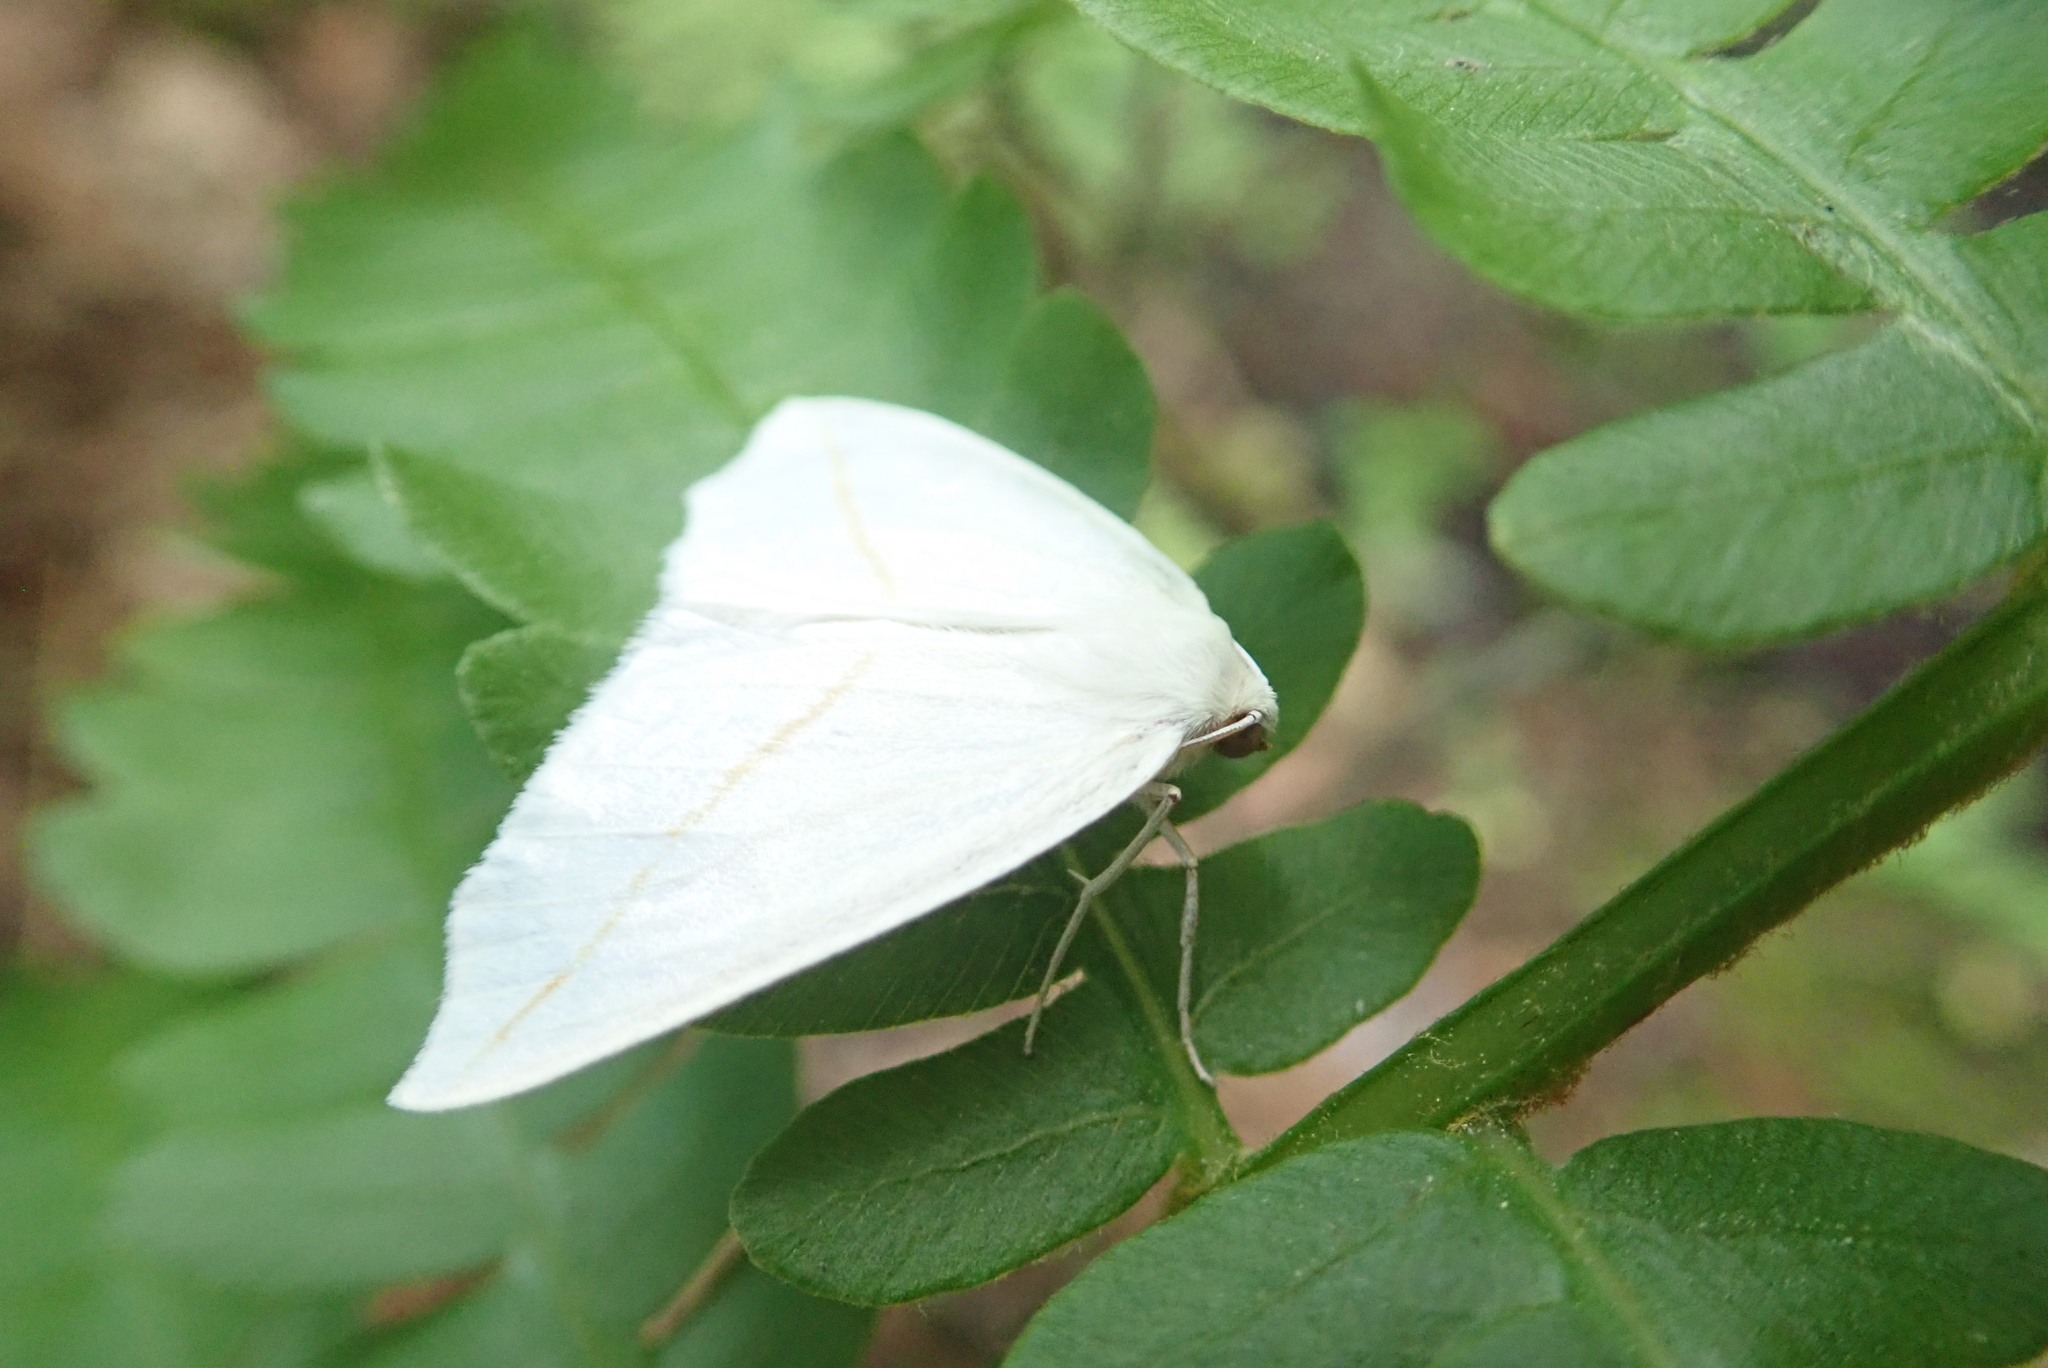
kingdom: Animalia
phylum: Arthropoda
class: Insecta
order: Lepidoptera
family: Geometridae
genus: Tetracis
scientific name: Tetracis cachexiata
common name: White slant-line
